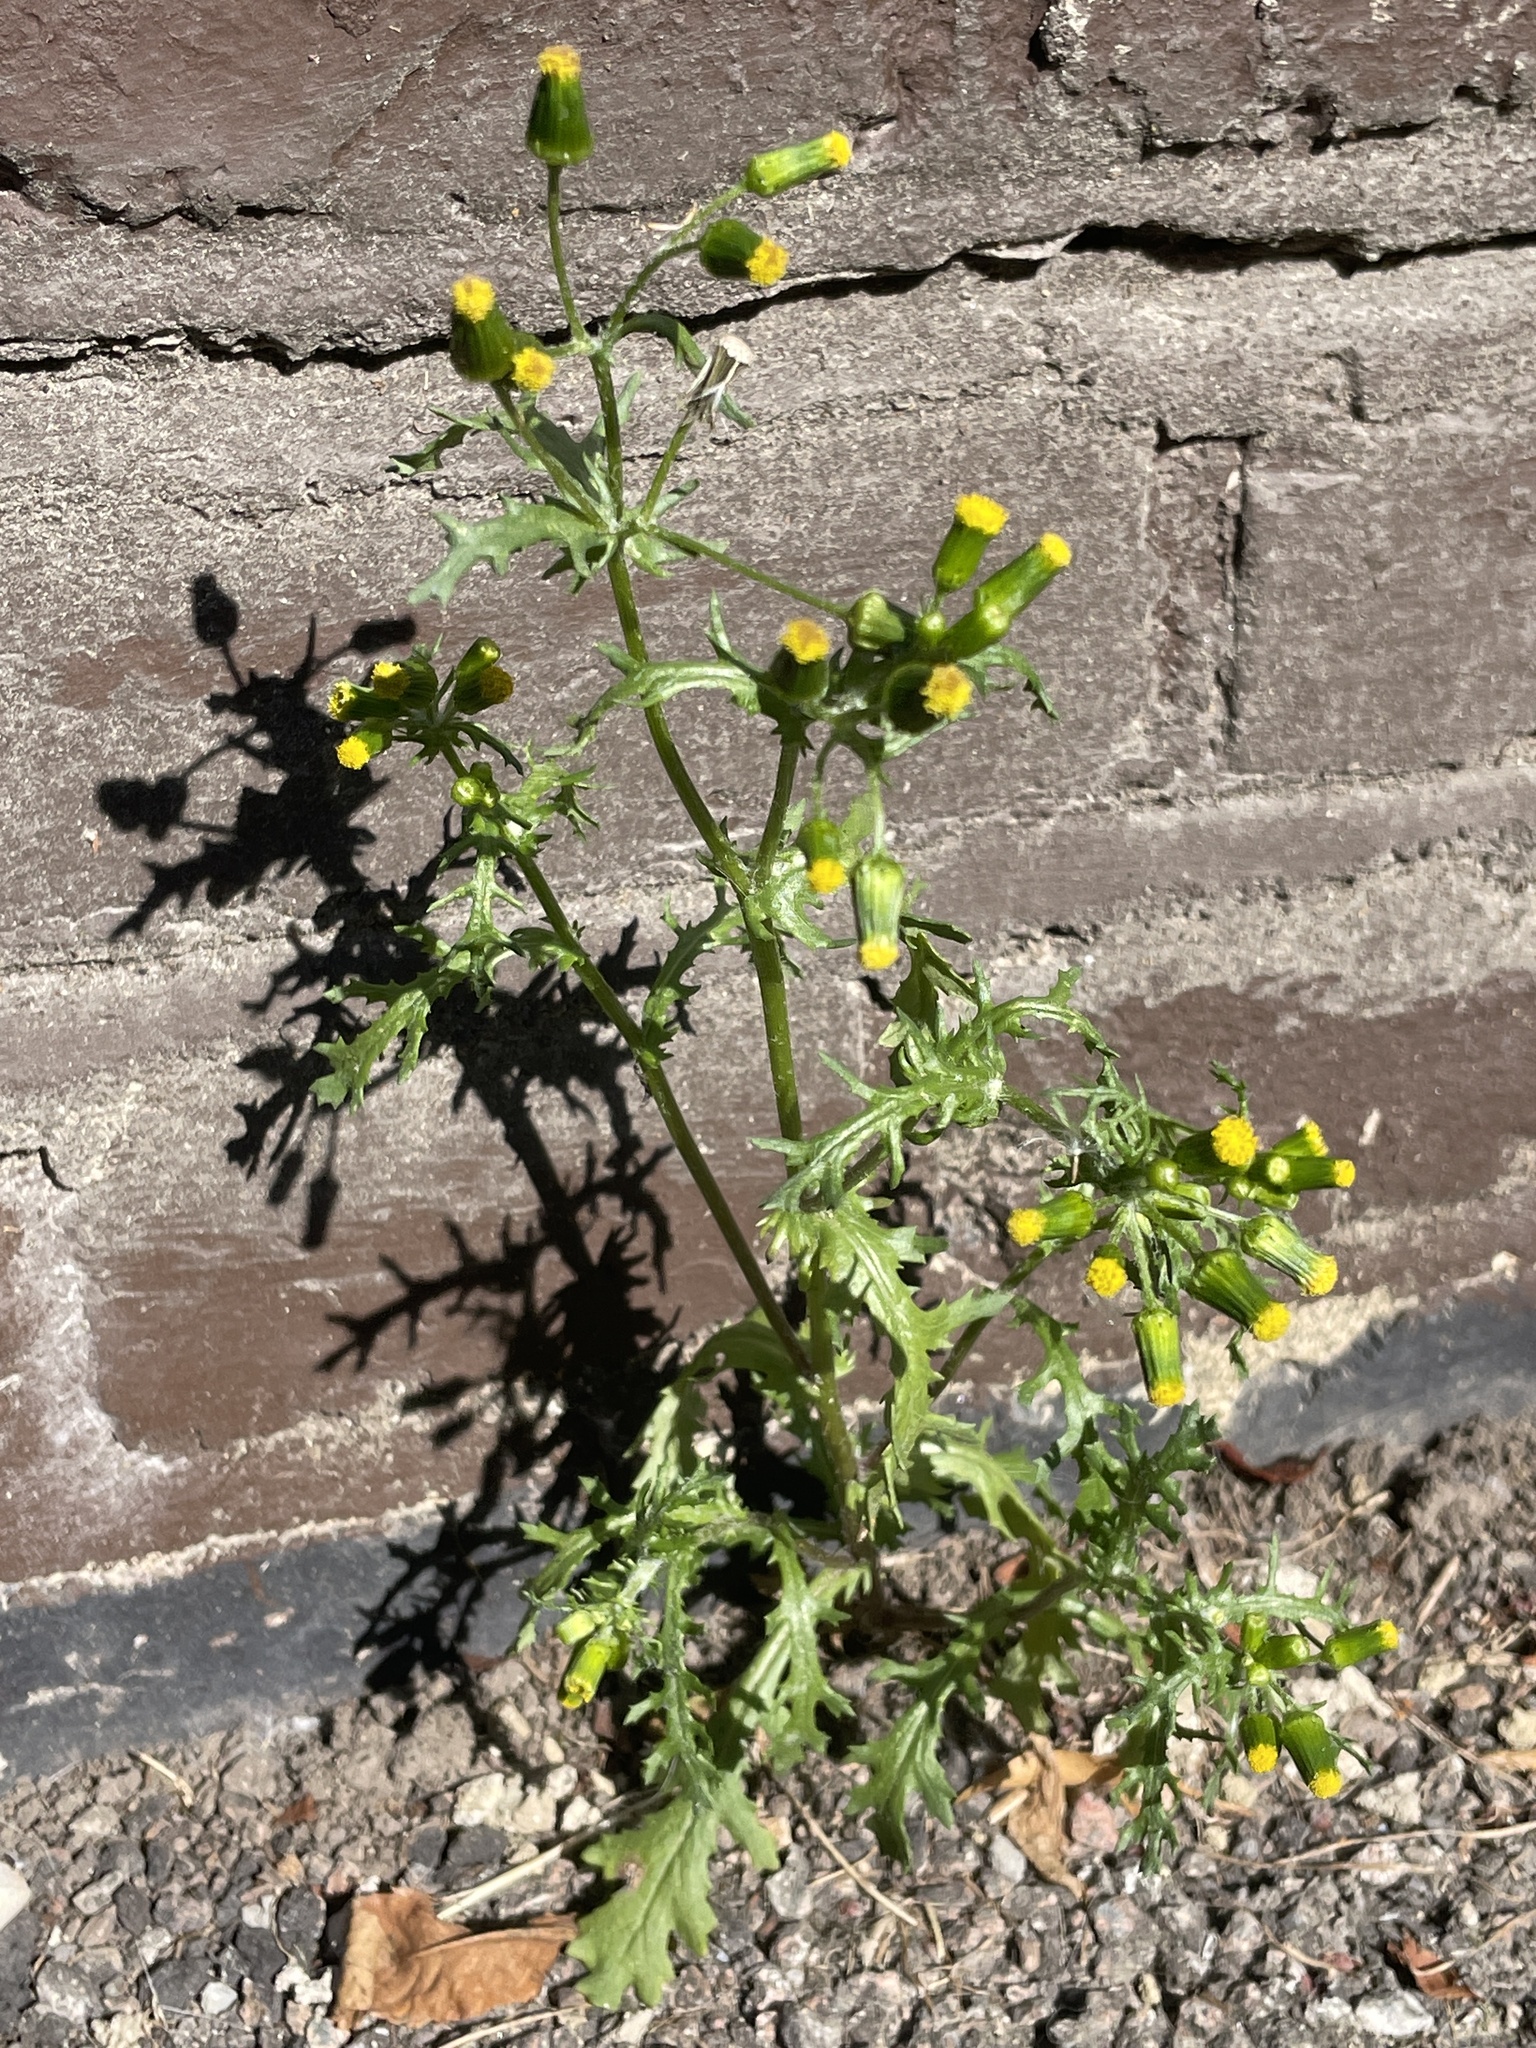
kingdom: Plantae
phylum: Tracheophyta
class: Magnoliopsida
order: Asterales
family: Asteraceae
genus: Senecio
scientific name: Senecio vulgaris
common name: Old-man-in-the-spring
